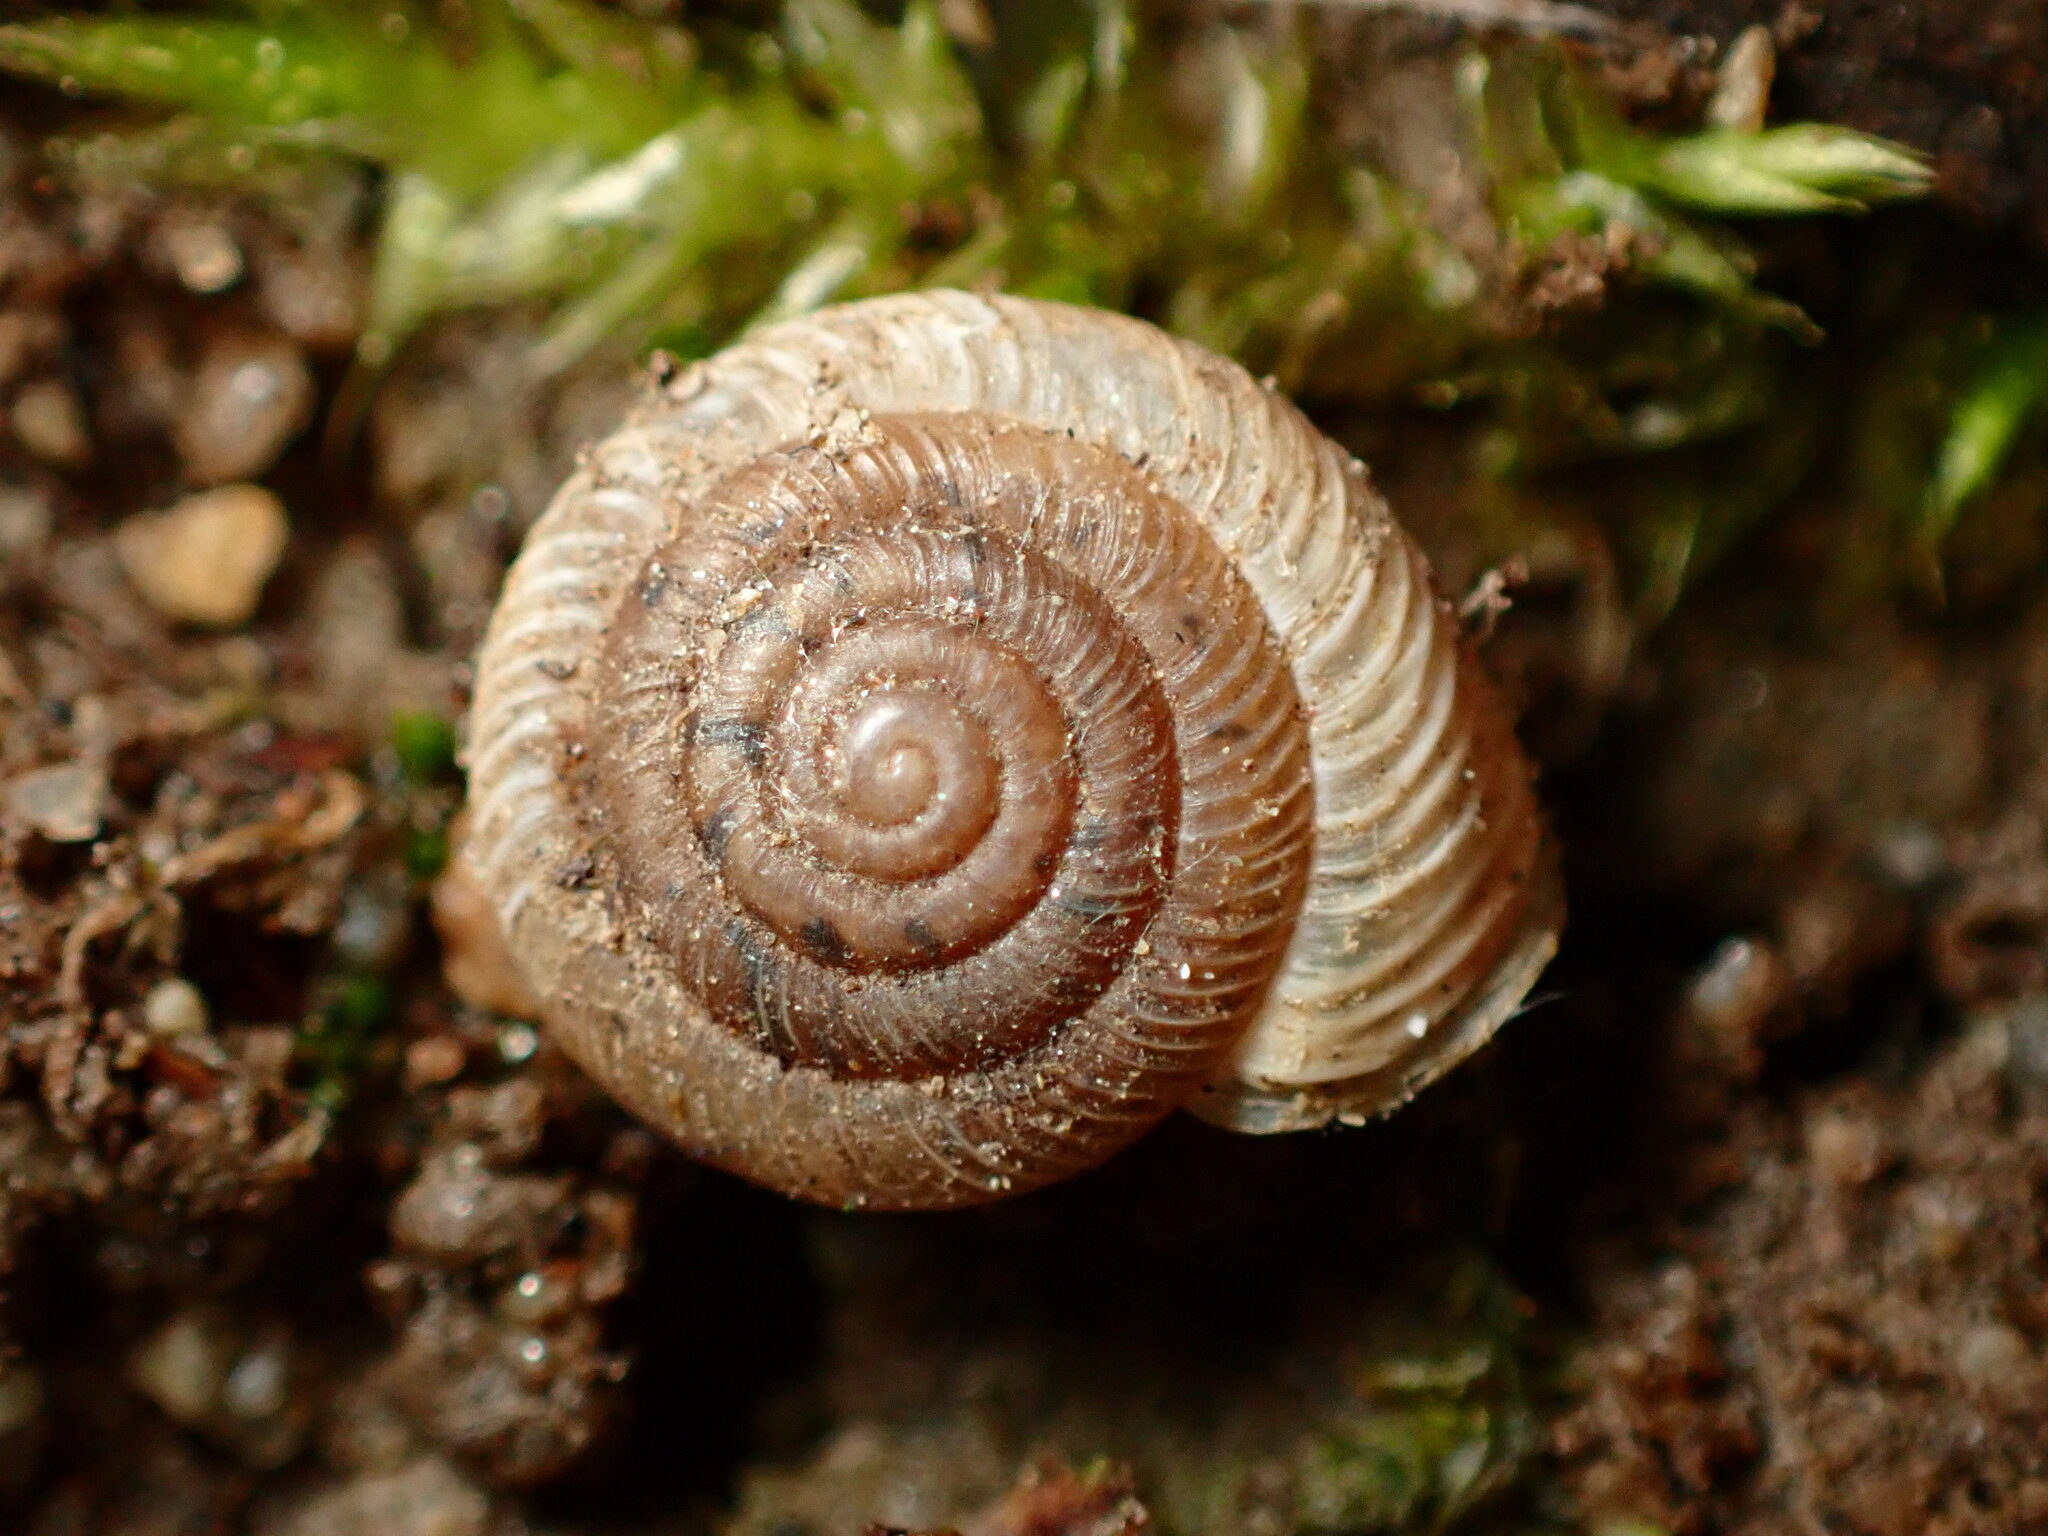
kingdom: Animalia
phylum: Mollusca
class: Gastropoda
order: Stylommatophora
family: Polygyridae
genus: Polygyra
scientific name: Polygyra cereolus
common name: Southern flatcone snail
